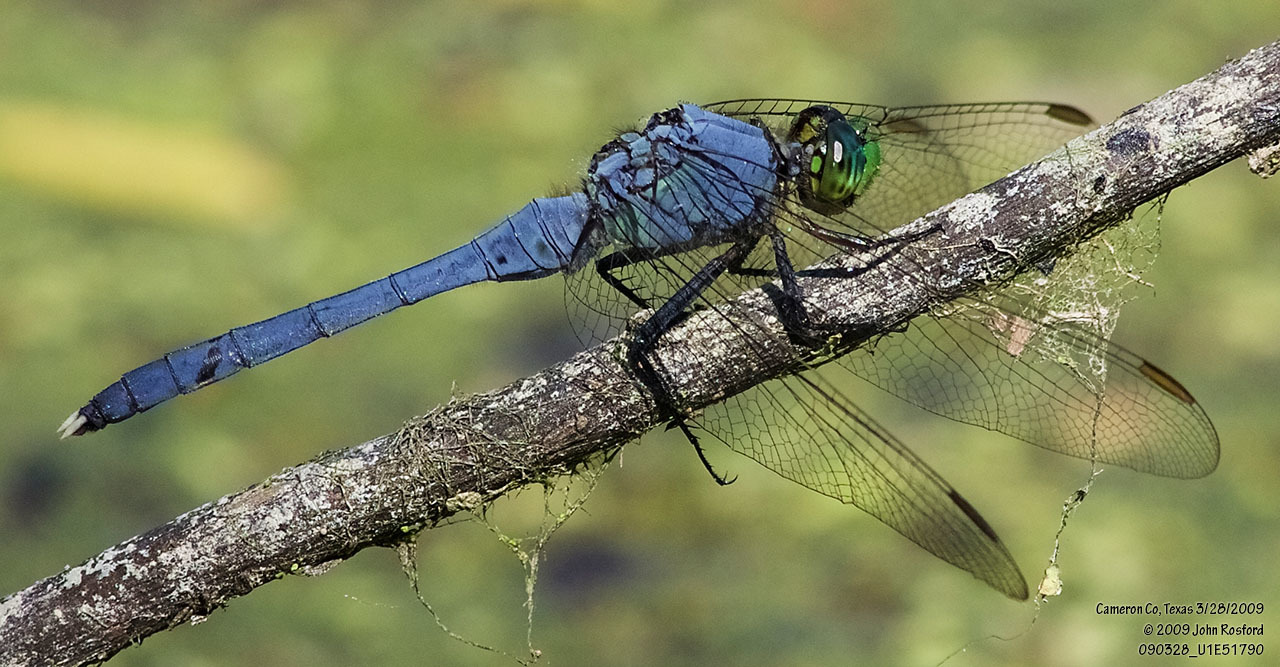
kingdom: Animalia
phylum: Arthropoda
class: Insecta
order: Odonata
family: Libellulidae
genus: Erythemis
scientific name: Erythemis simplicicollis
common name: Eastern pondhawk
